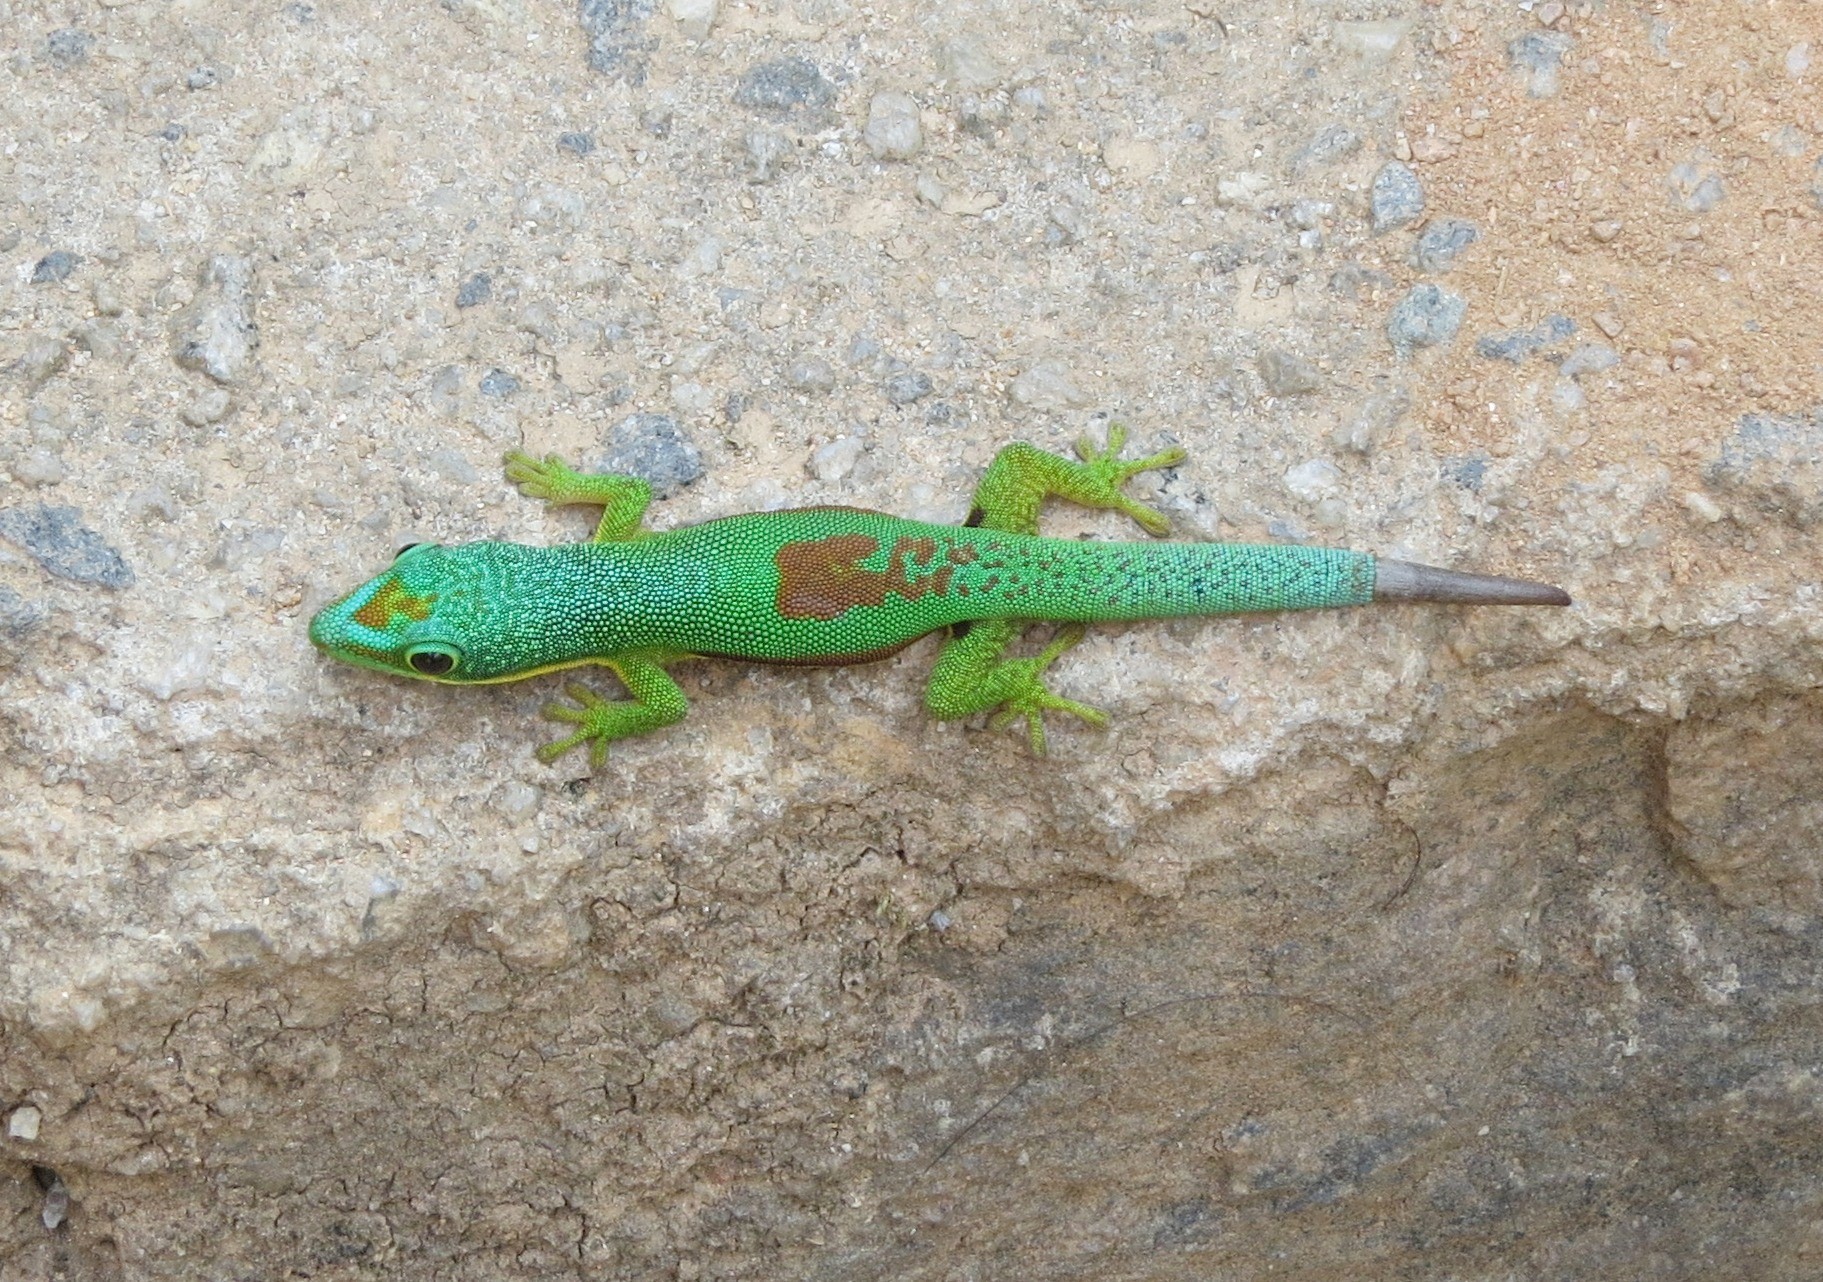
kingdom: Animalia
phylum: Chordata
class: Squamata
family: Gekkonidae
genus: Phelsuma
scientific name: Phelsuma lineata
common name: Lined day gecko
